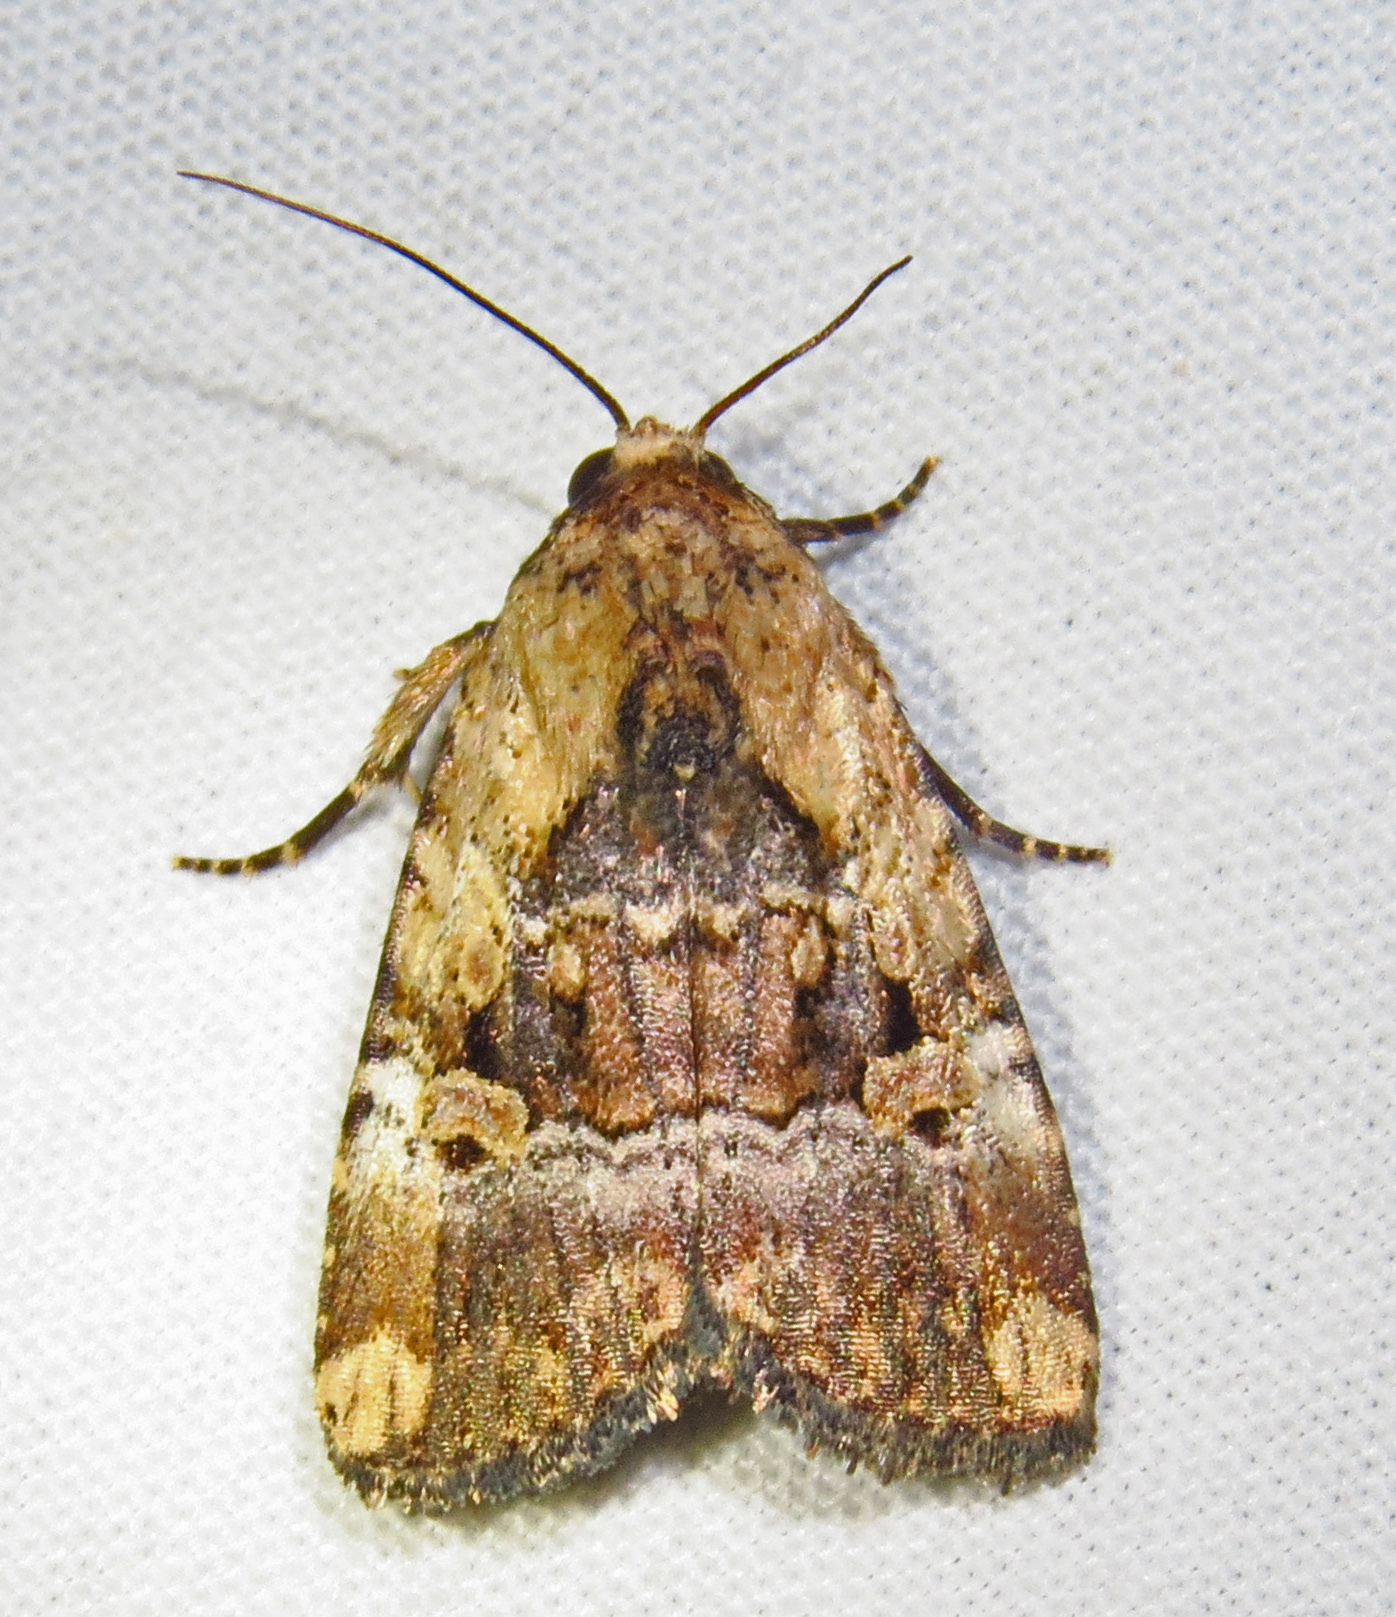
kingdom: Animalia
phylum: Arthropoda
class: Insecta
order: Lepidoptera
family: Noctuidae
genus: Elaphria
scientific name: Elaphria chalcedonia
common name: Chalcedony midget
